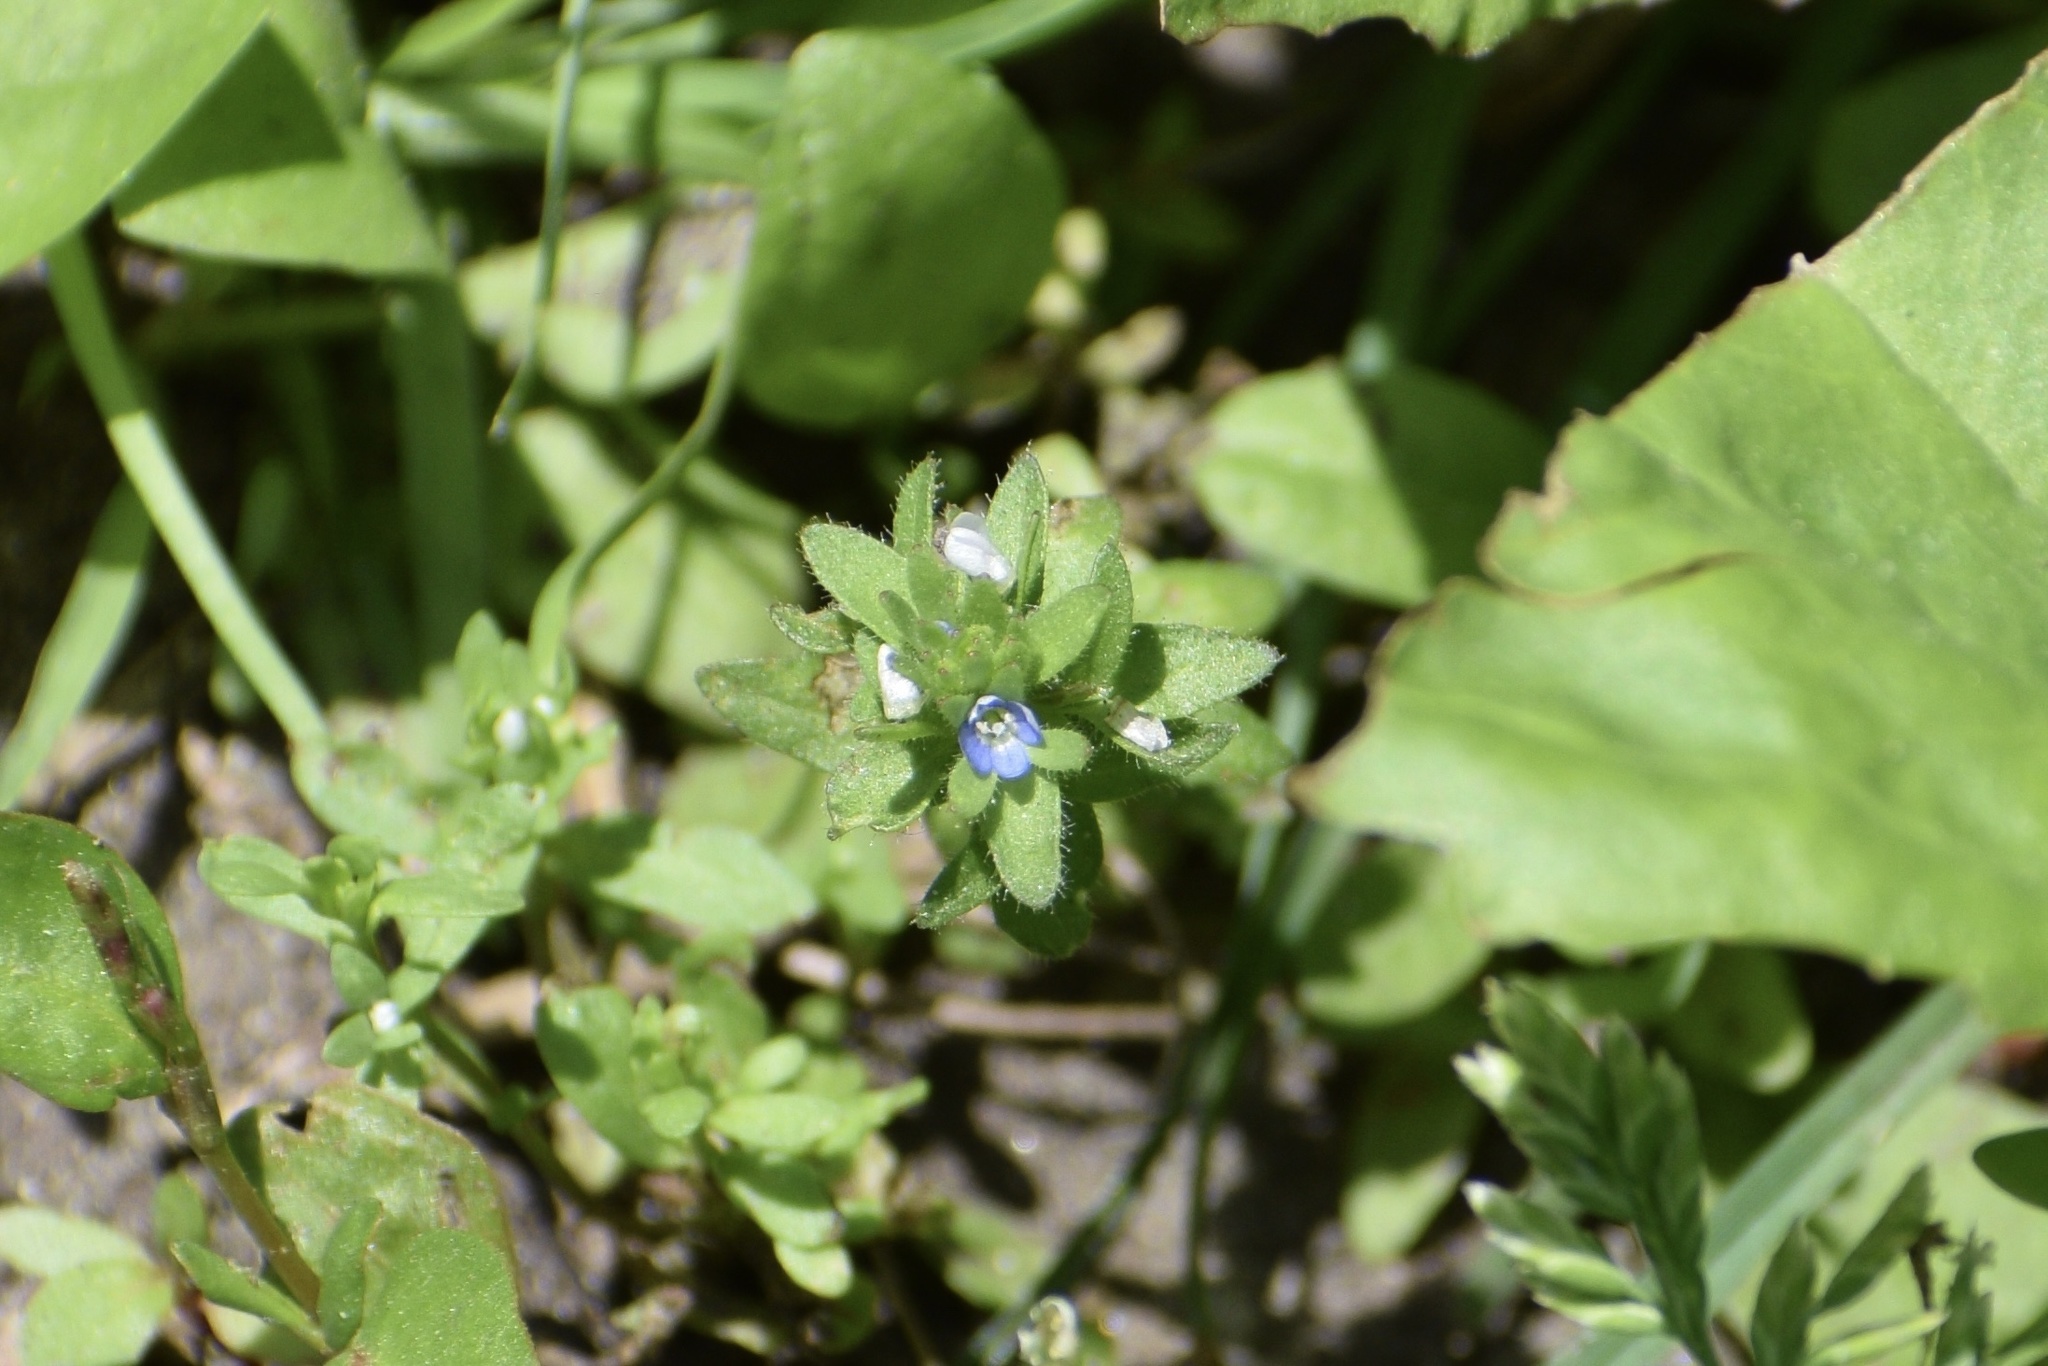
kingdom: Plantae
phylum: Tracheophyta
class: Magnoliopsida
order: Lamiales
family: Plantaginaceae
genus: Veronica
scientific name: Veronica arvensis
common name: Corn speedwell
